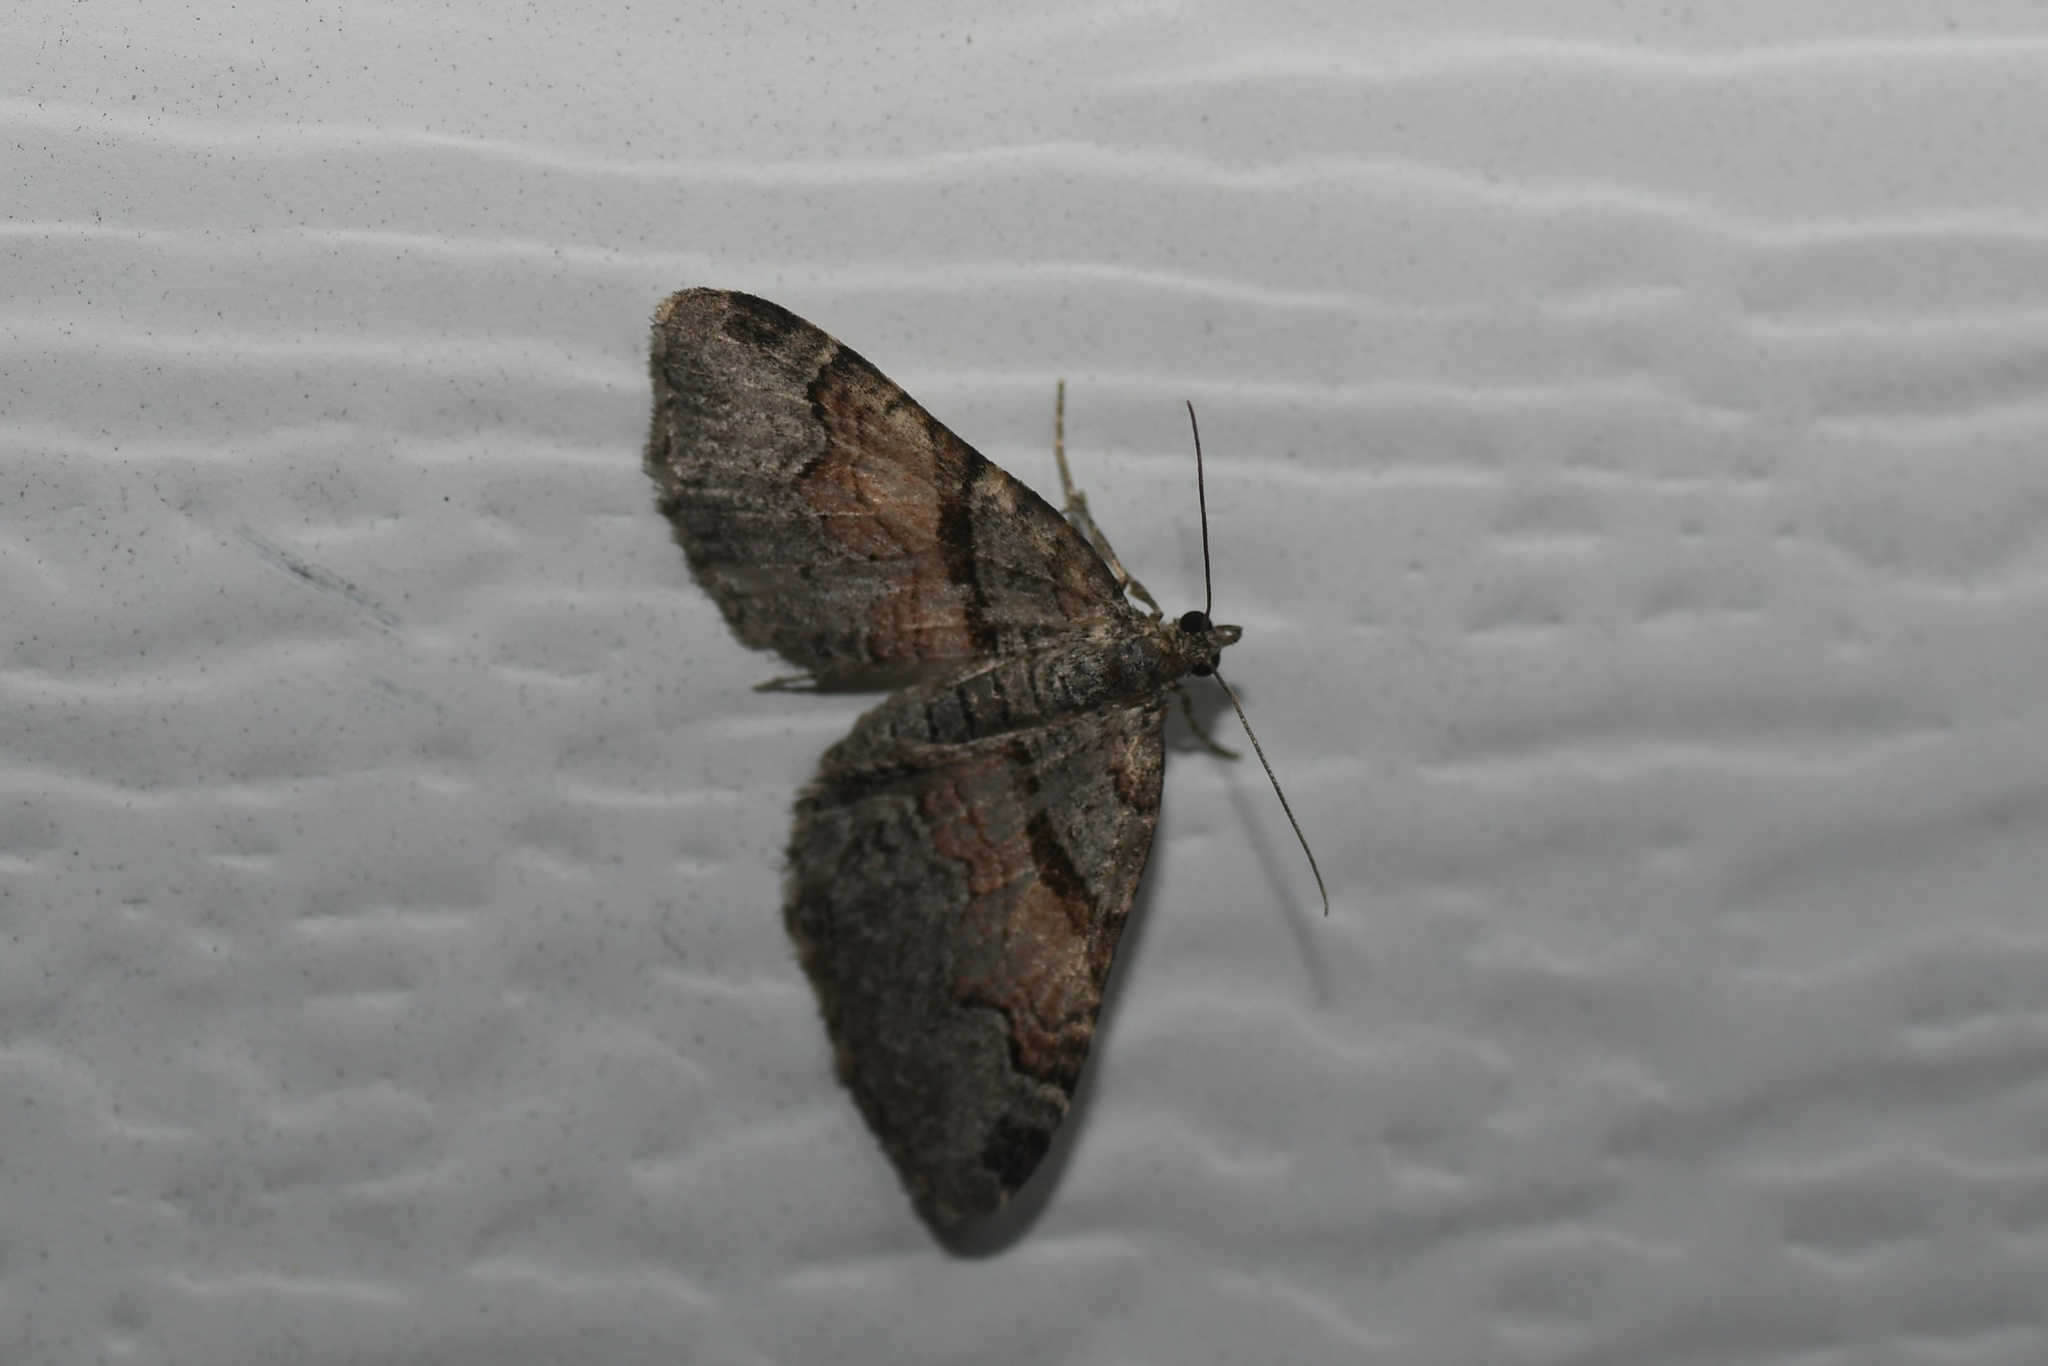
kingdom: Animalia
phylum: Arthropoda
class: Insecta
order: Lepidoptera
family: Geometridae
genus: Xanthorhoe
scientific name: Xanthorhoe labradorensis
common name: Labrador carpet
